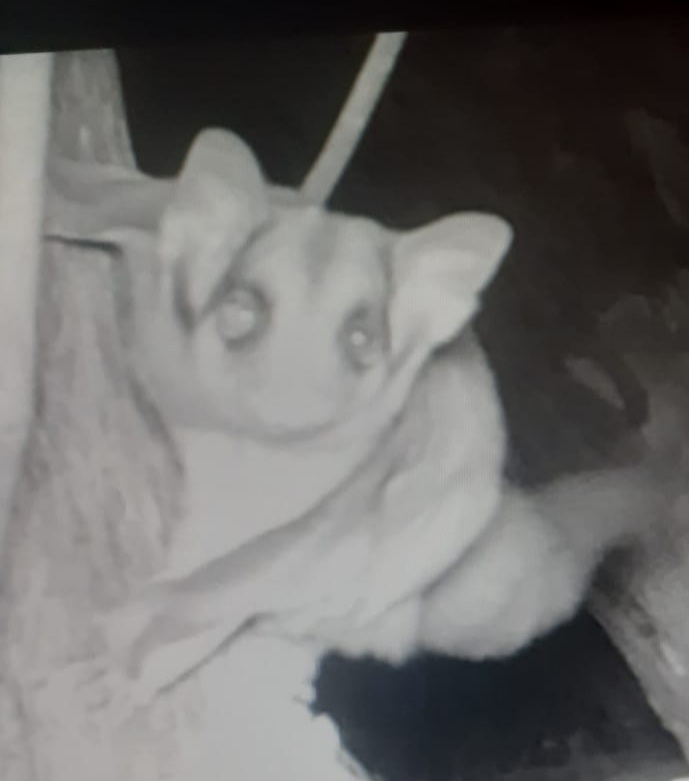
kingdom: Animalia
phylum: Chordata
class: Mammalia
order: Diprotodontia
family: Petauridae
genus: Petaurus
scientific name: Petaurus breviceps
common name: Sugar glider
